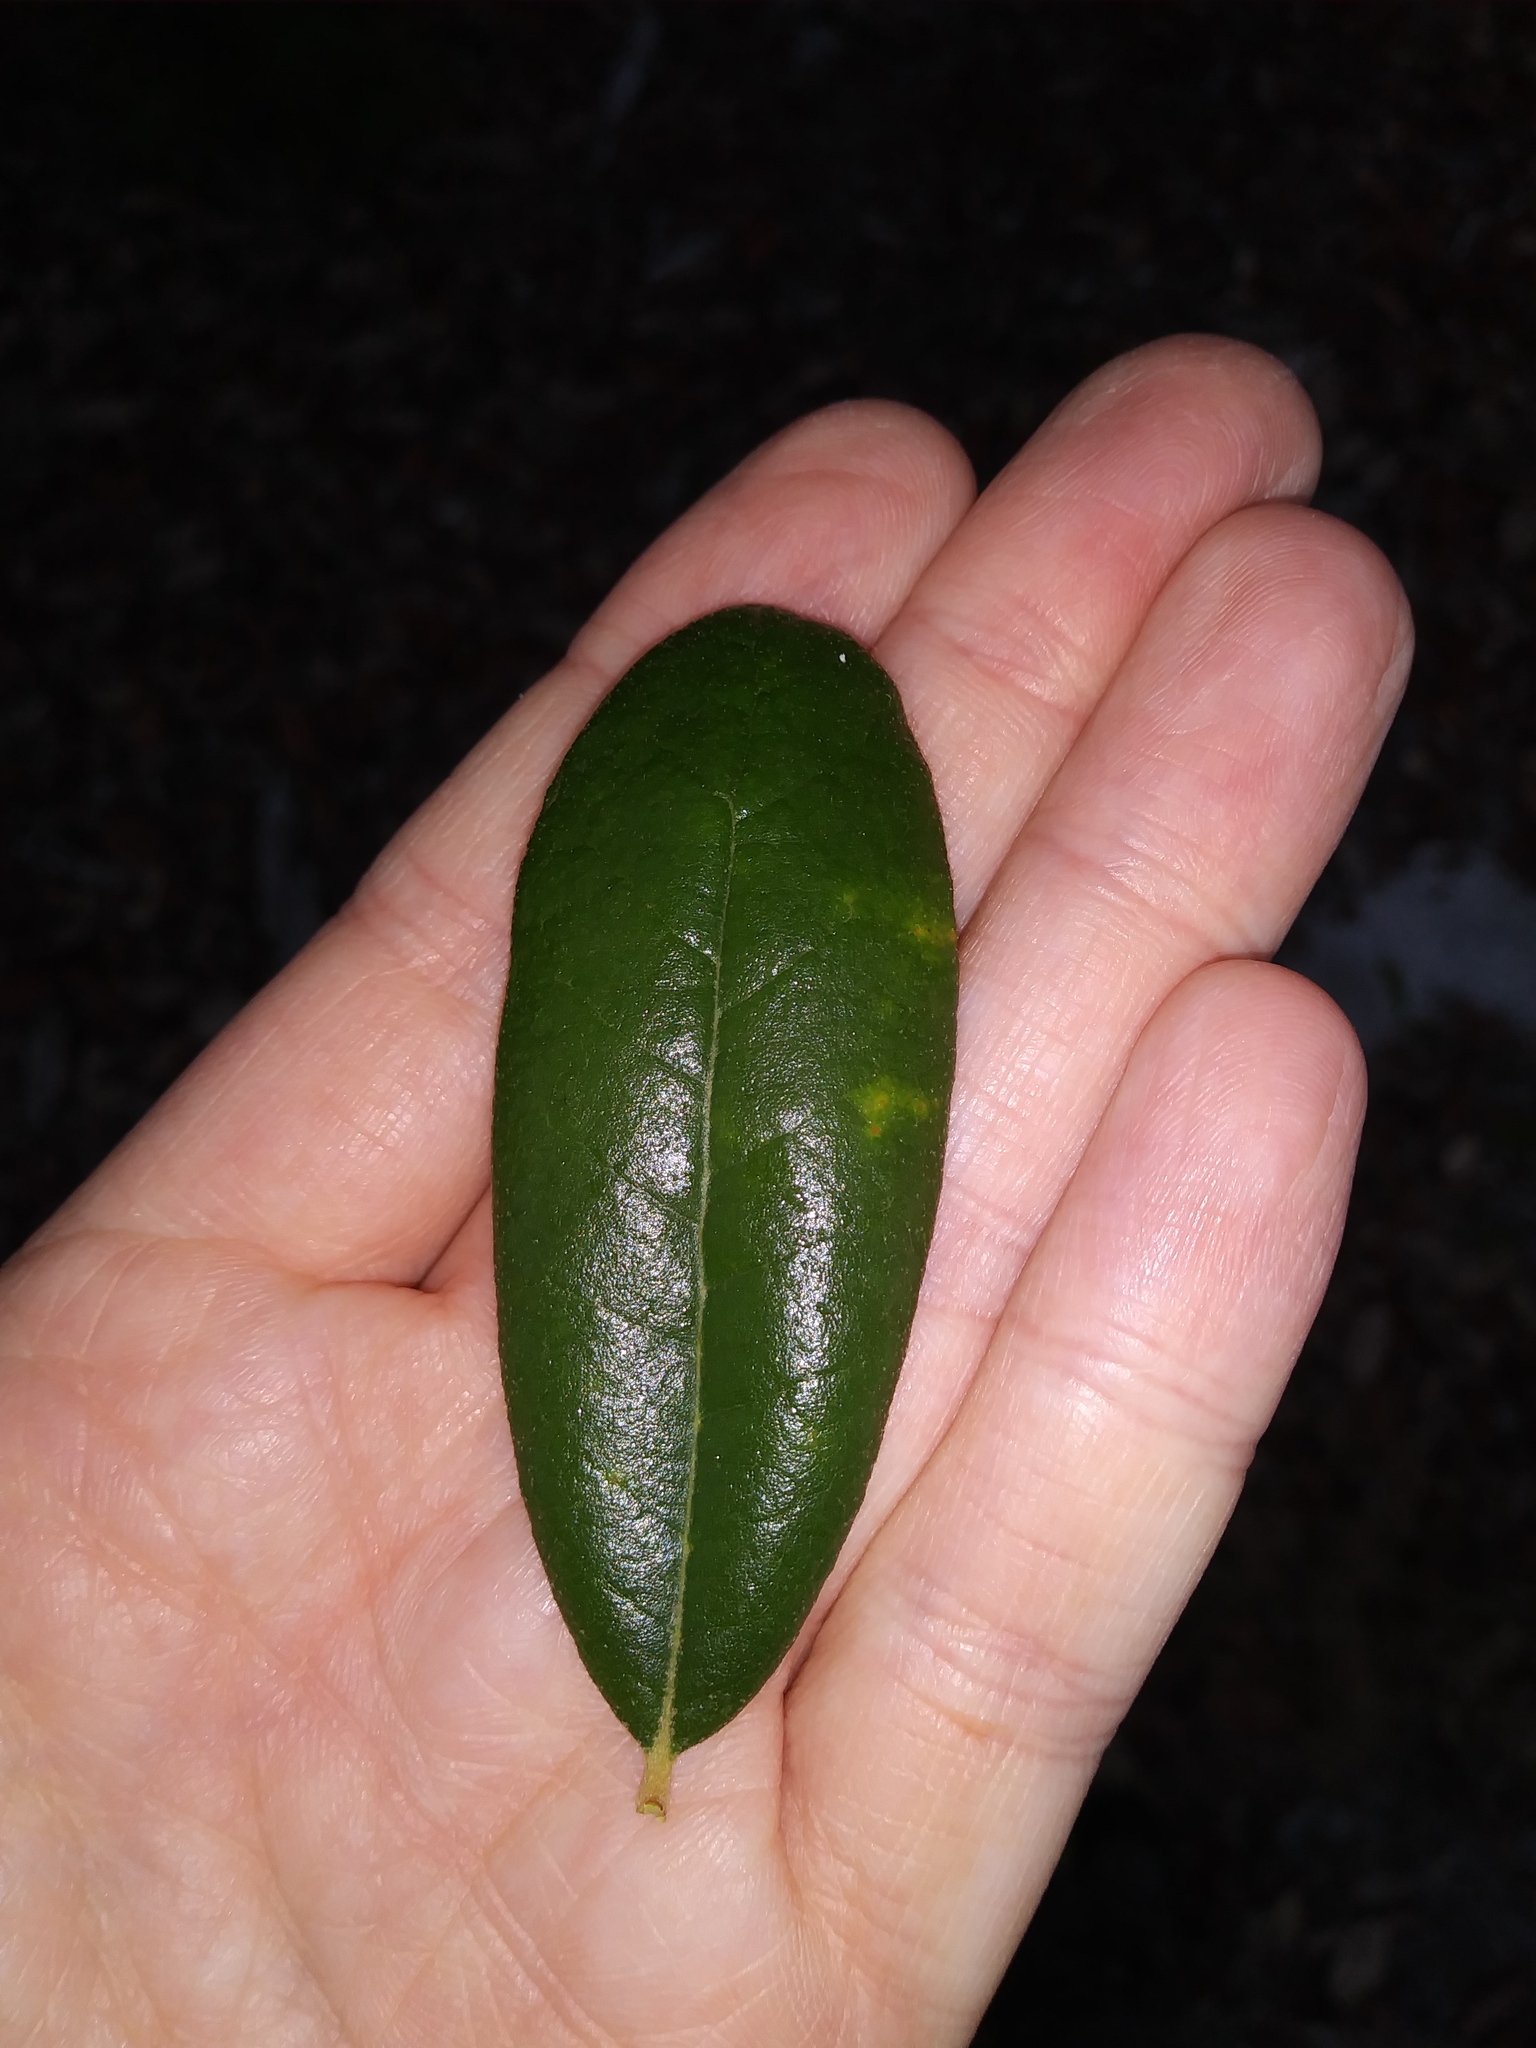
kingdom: Plantae
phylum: Tracheophyta
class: Magnoliopsida
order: Fagales
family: Fagaceae
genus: Quercus
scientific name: Quercus virginiana
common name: Southern live oak
